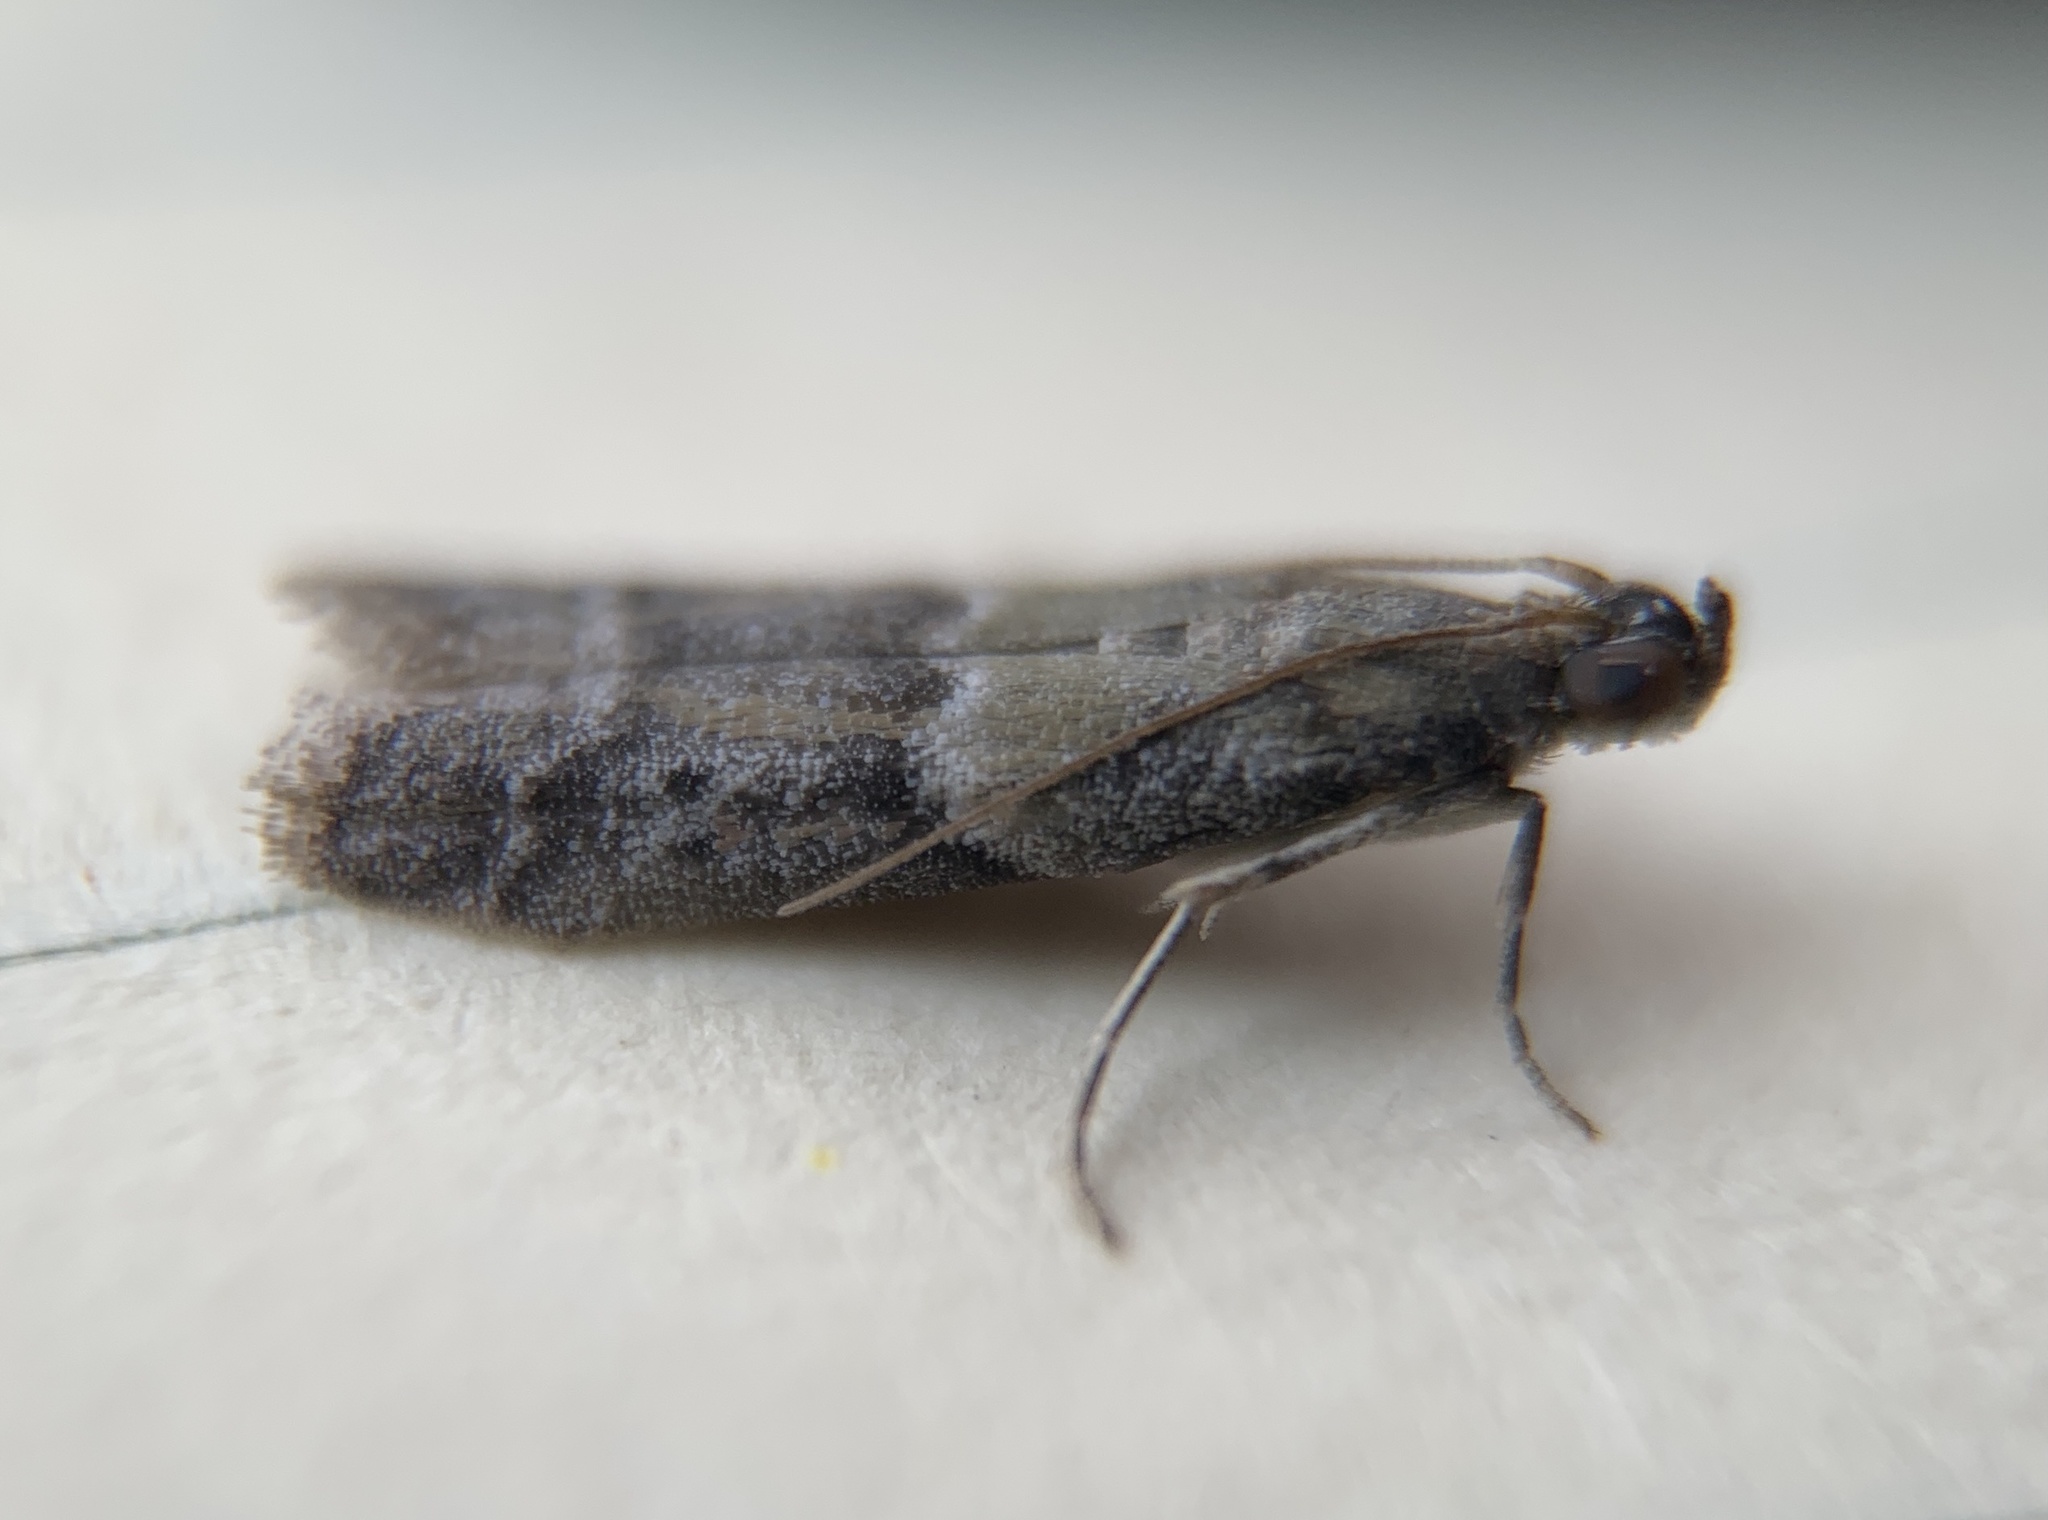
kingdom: Animalia
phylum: Arthropoda
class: Insecta
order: Lepidoptera
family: Pyralidae
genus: Ephestiodes
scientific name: Ephestiodes infimella
